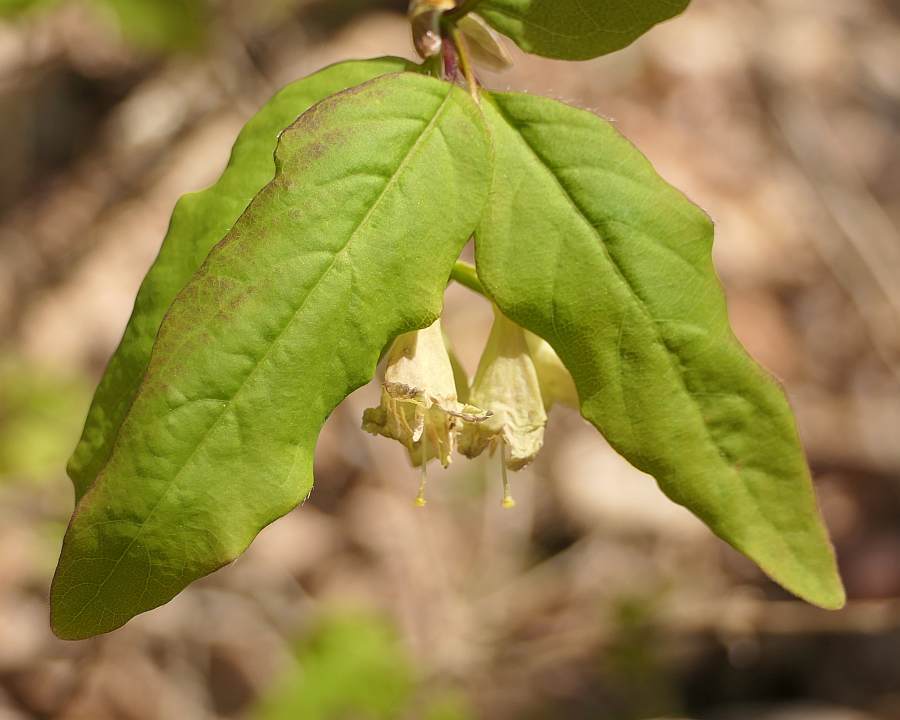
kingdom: Plantae
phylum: Tracheophyta
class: Magnoliopsida
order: Dipsacales
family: Caprifoliaceae
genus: Lonicera
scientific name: Lonicera canadensis
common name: American fly-honeysuckle
